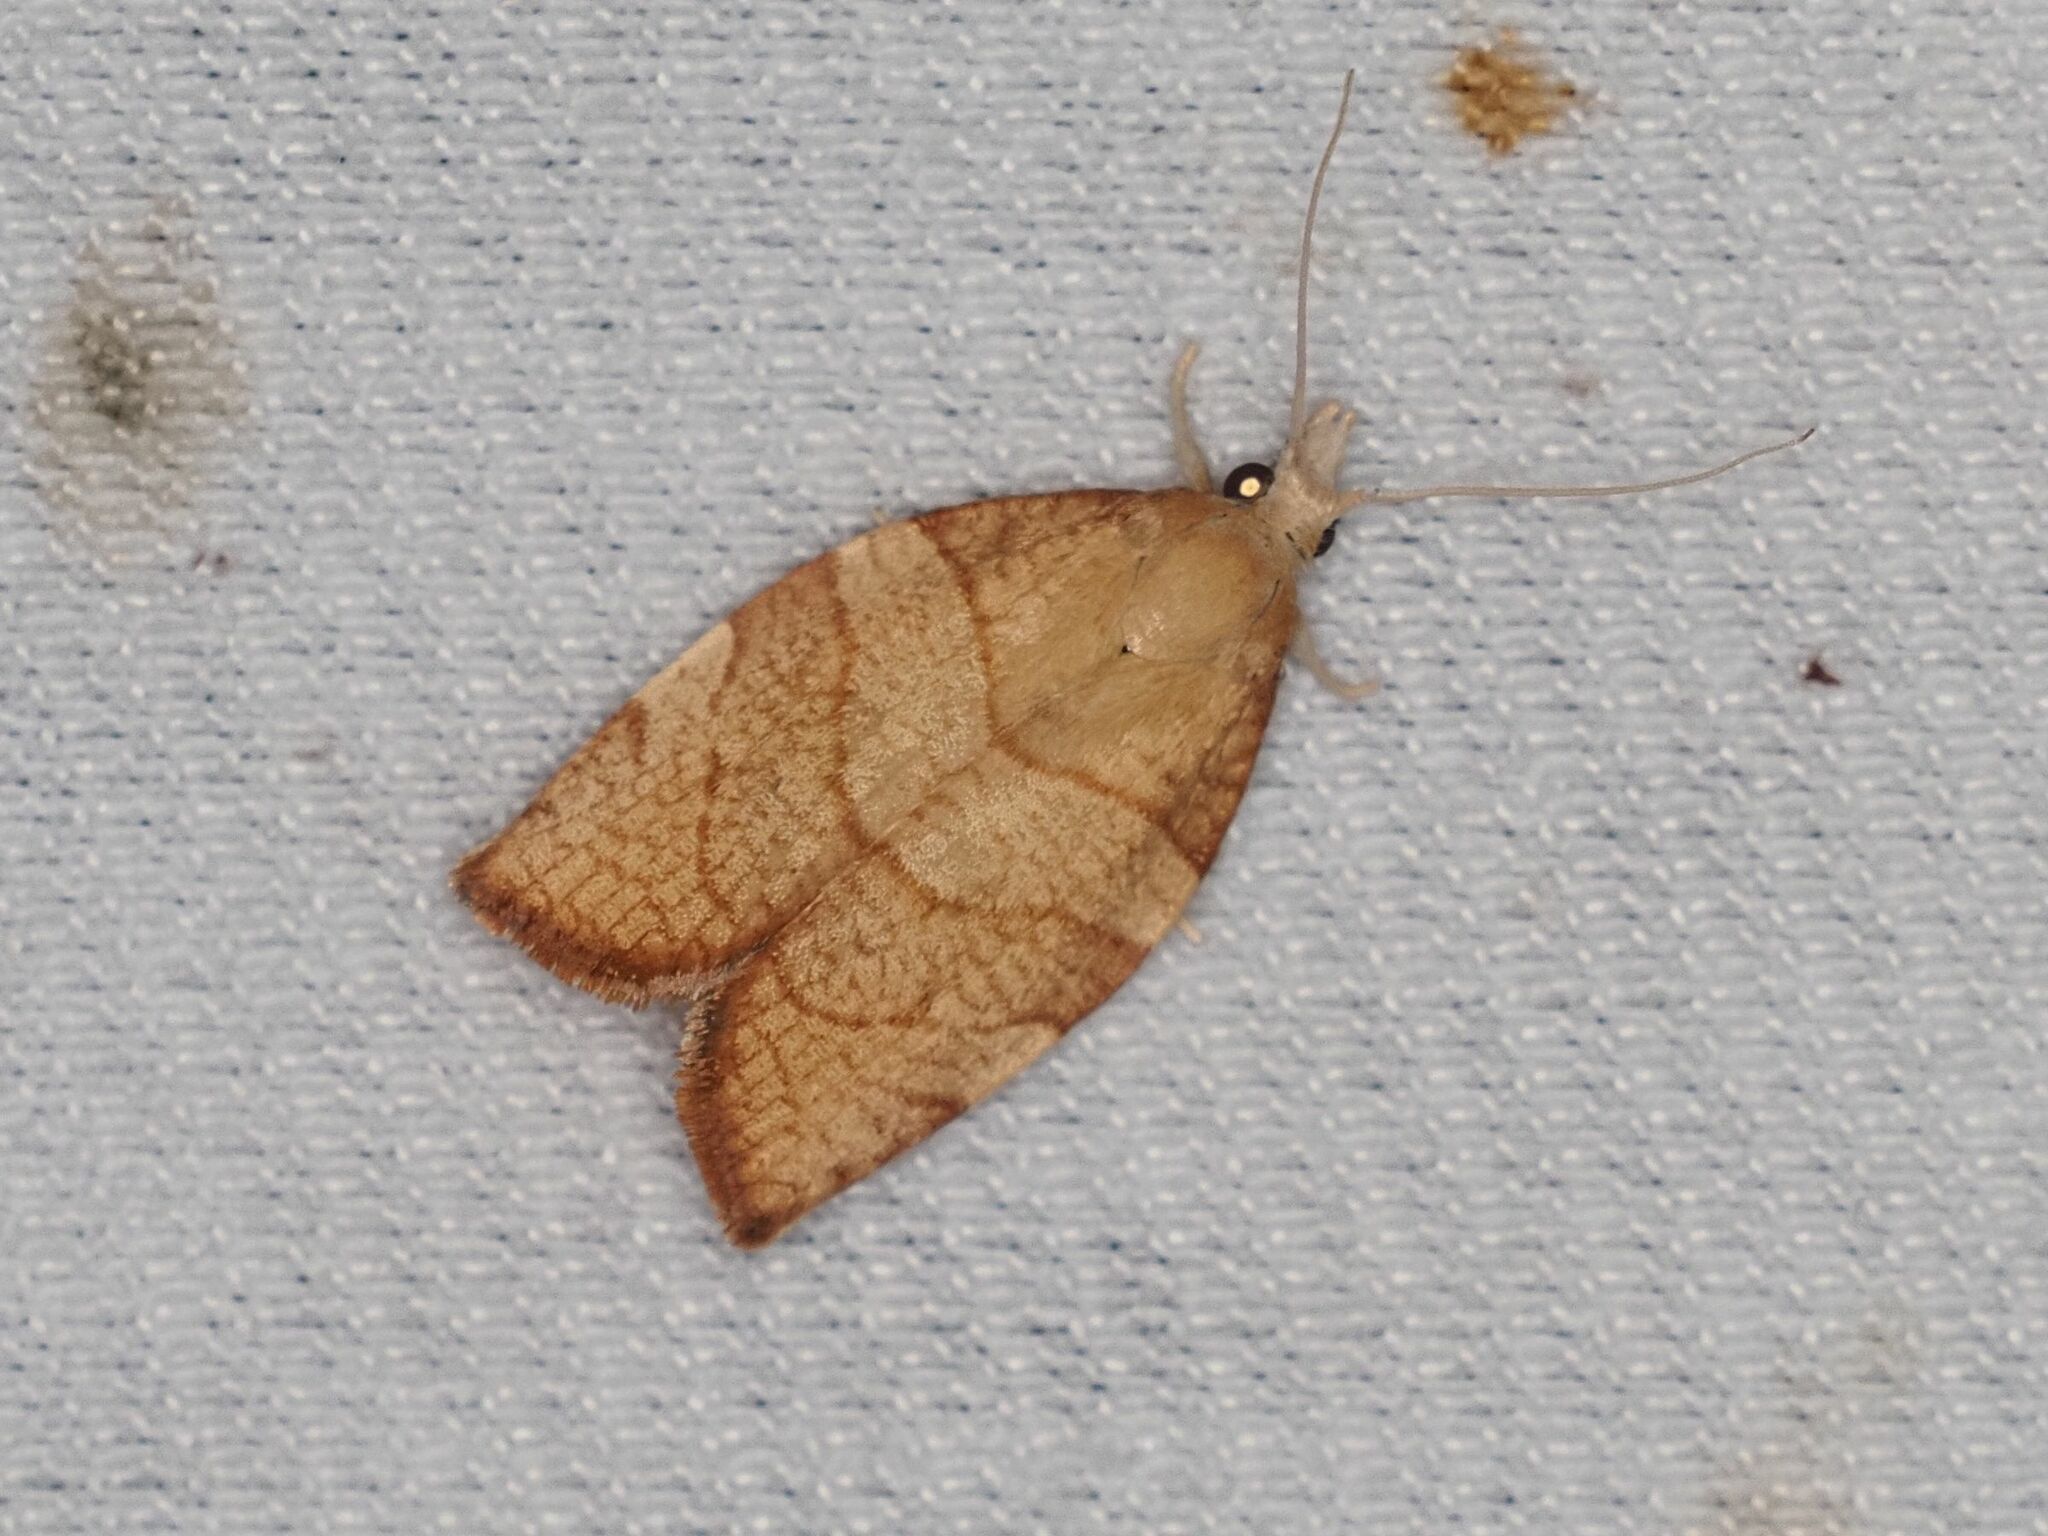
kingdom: Animalia
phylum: Arthropoda
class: Insecta
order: Lepidoptera
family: Tortricidae
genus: Pandemis
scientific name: Pandemis corylana
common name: Chequered fruit-tree tortrix
